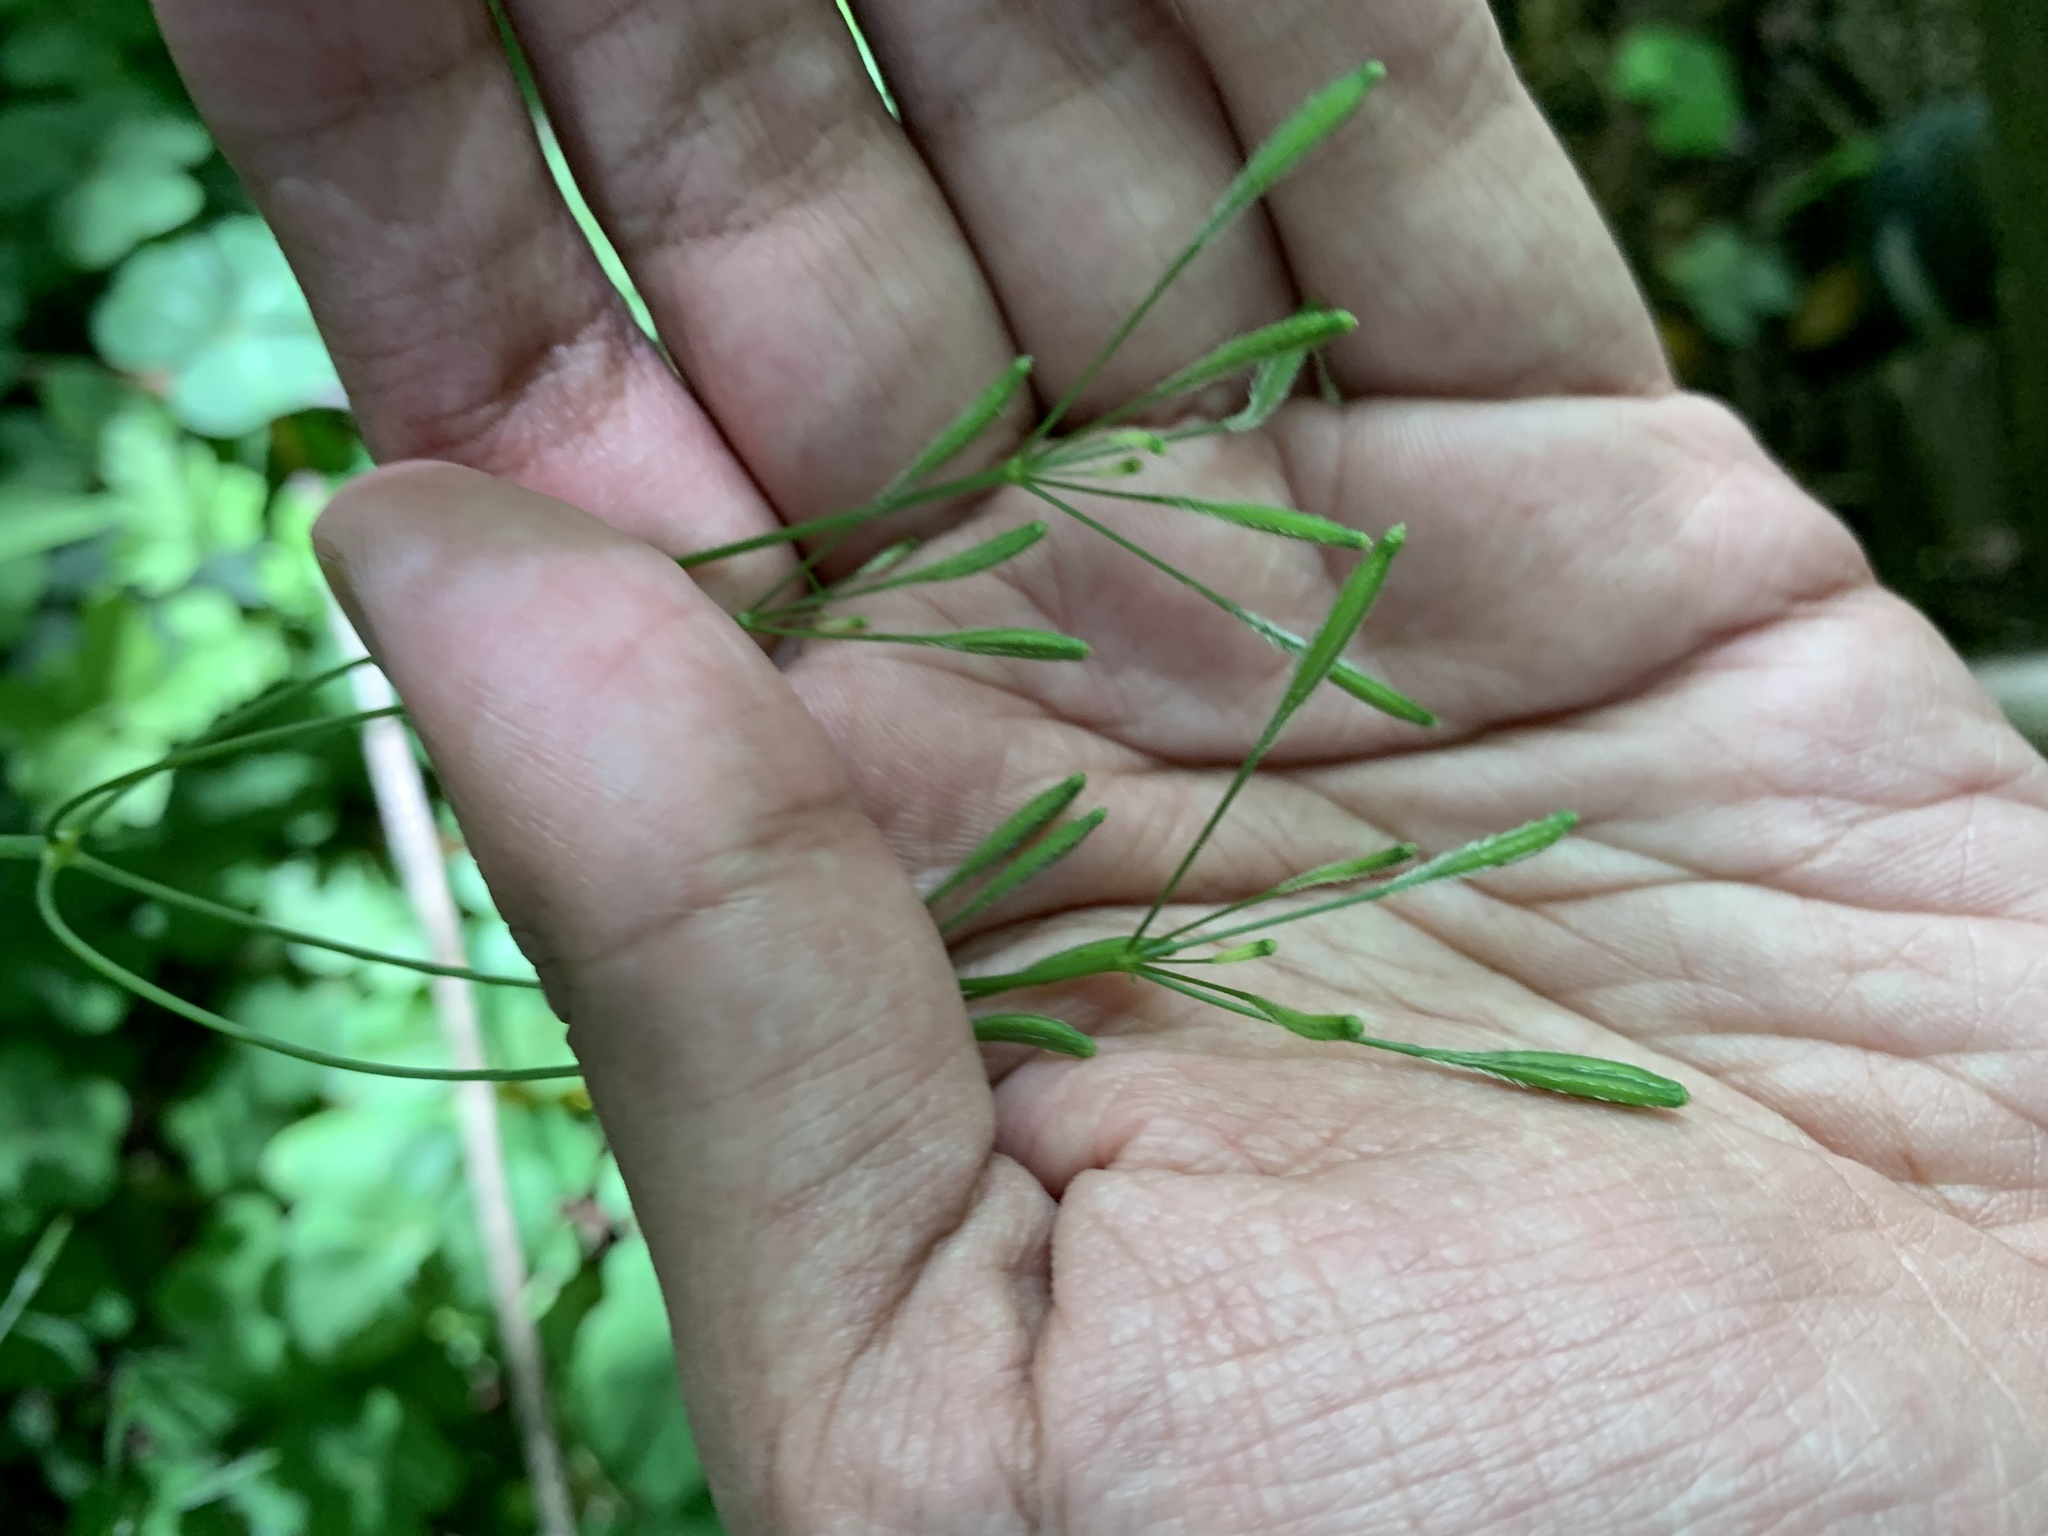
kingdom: Plantae
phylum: Tracheophyta
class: Magnoliopsida
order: Apiales
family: Apiaceae
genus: Osmorhiza
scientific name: Osmorhiza berteroi
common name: Mountain sweet cicely
